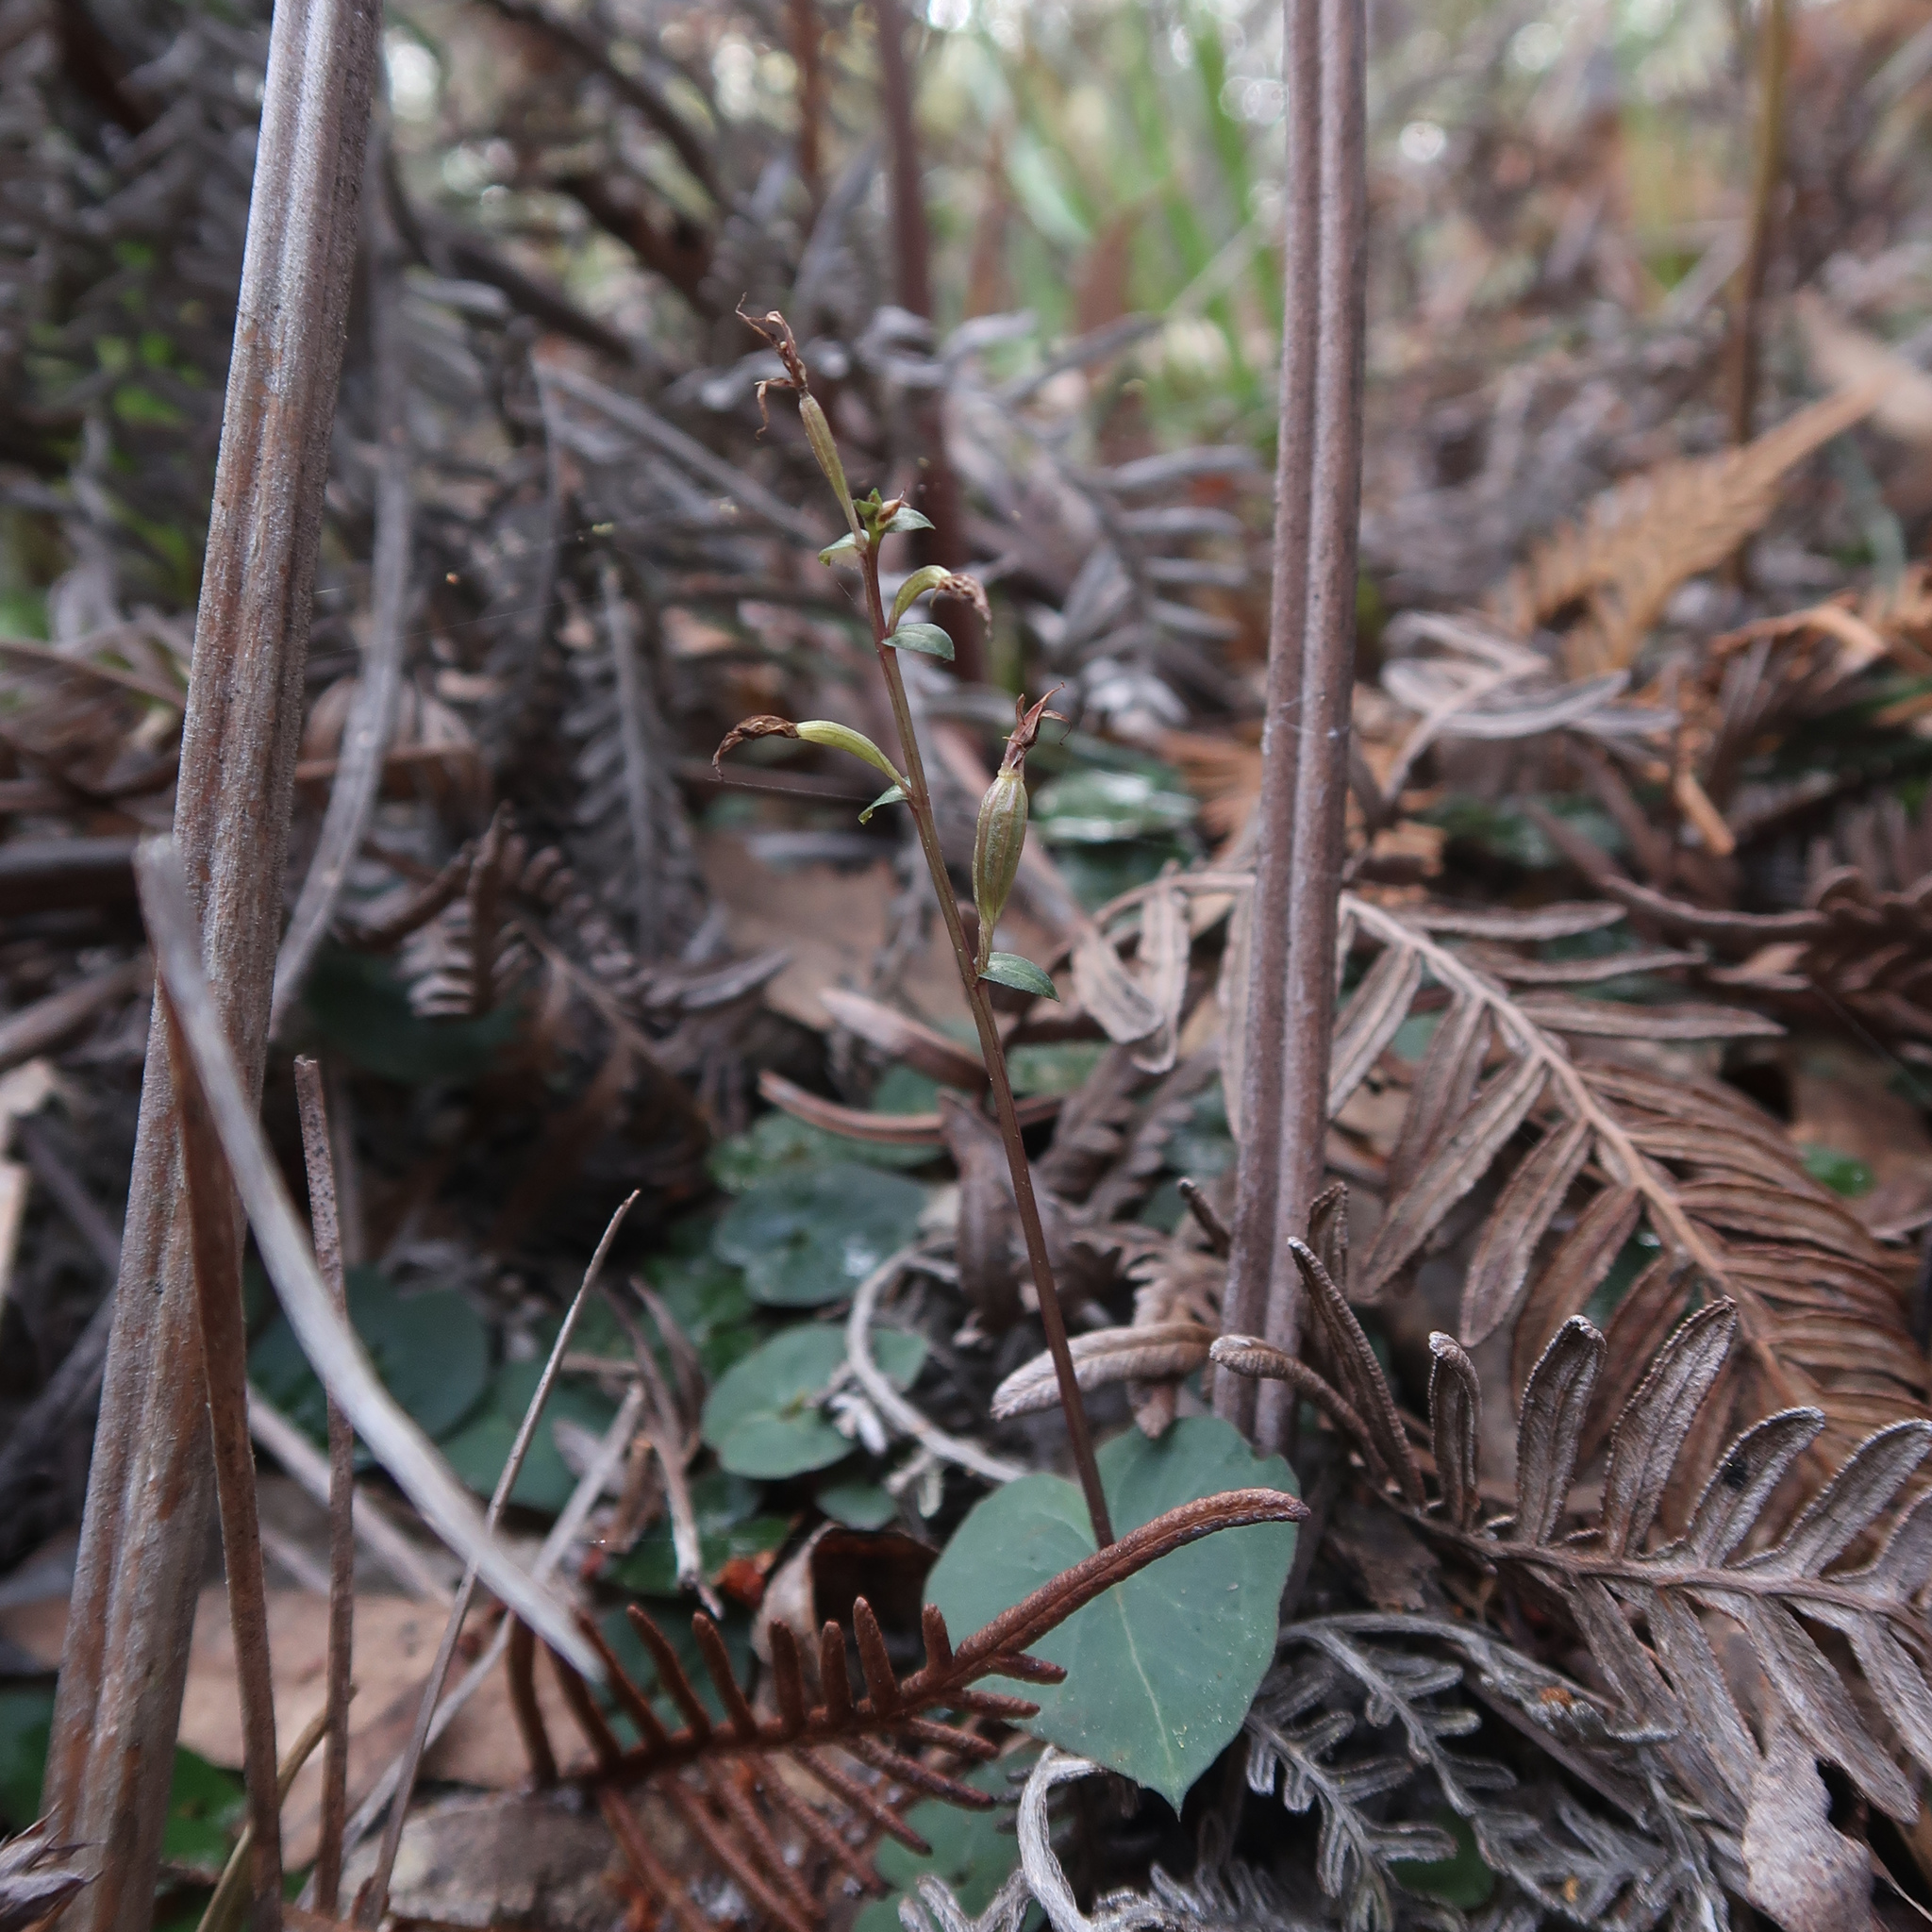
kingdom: Plantae
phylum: Tracheophyta
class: Liliopsida
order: Asparagales
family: Orchidaceae
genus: Acianthus
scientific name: Acianthus pusillus
